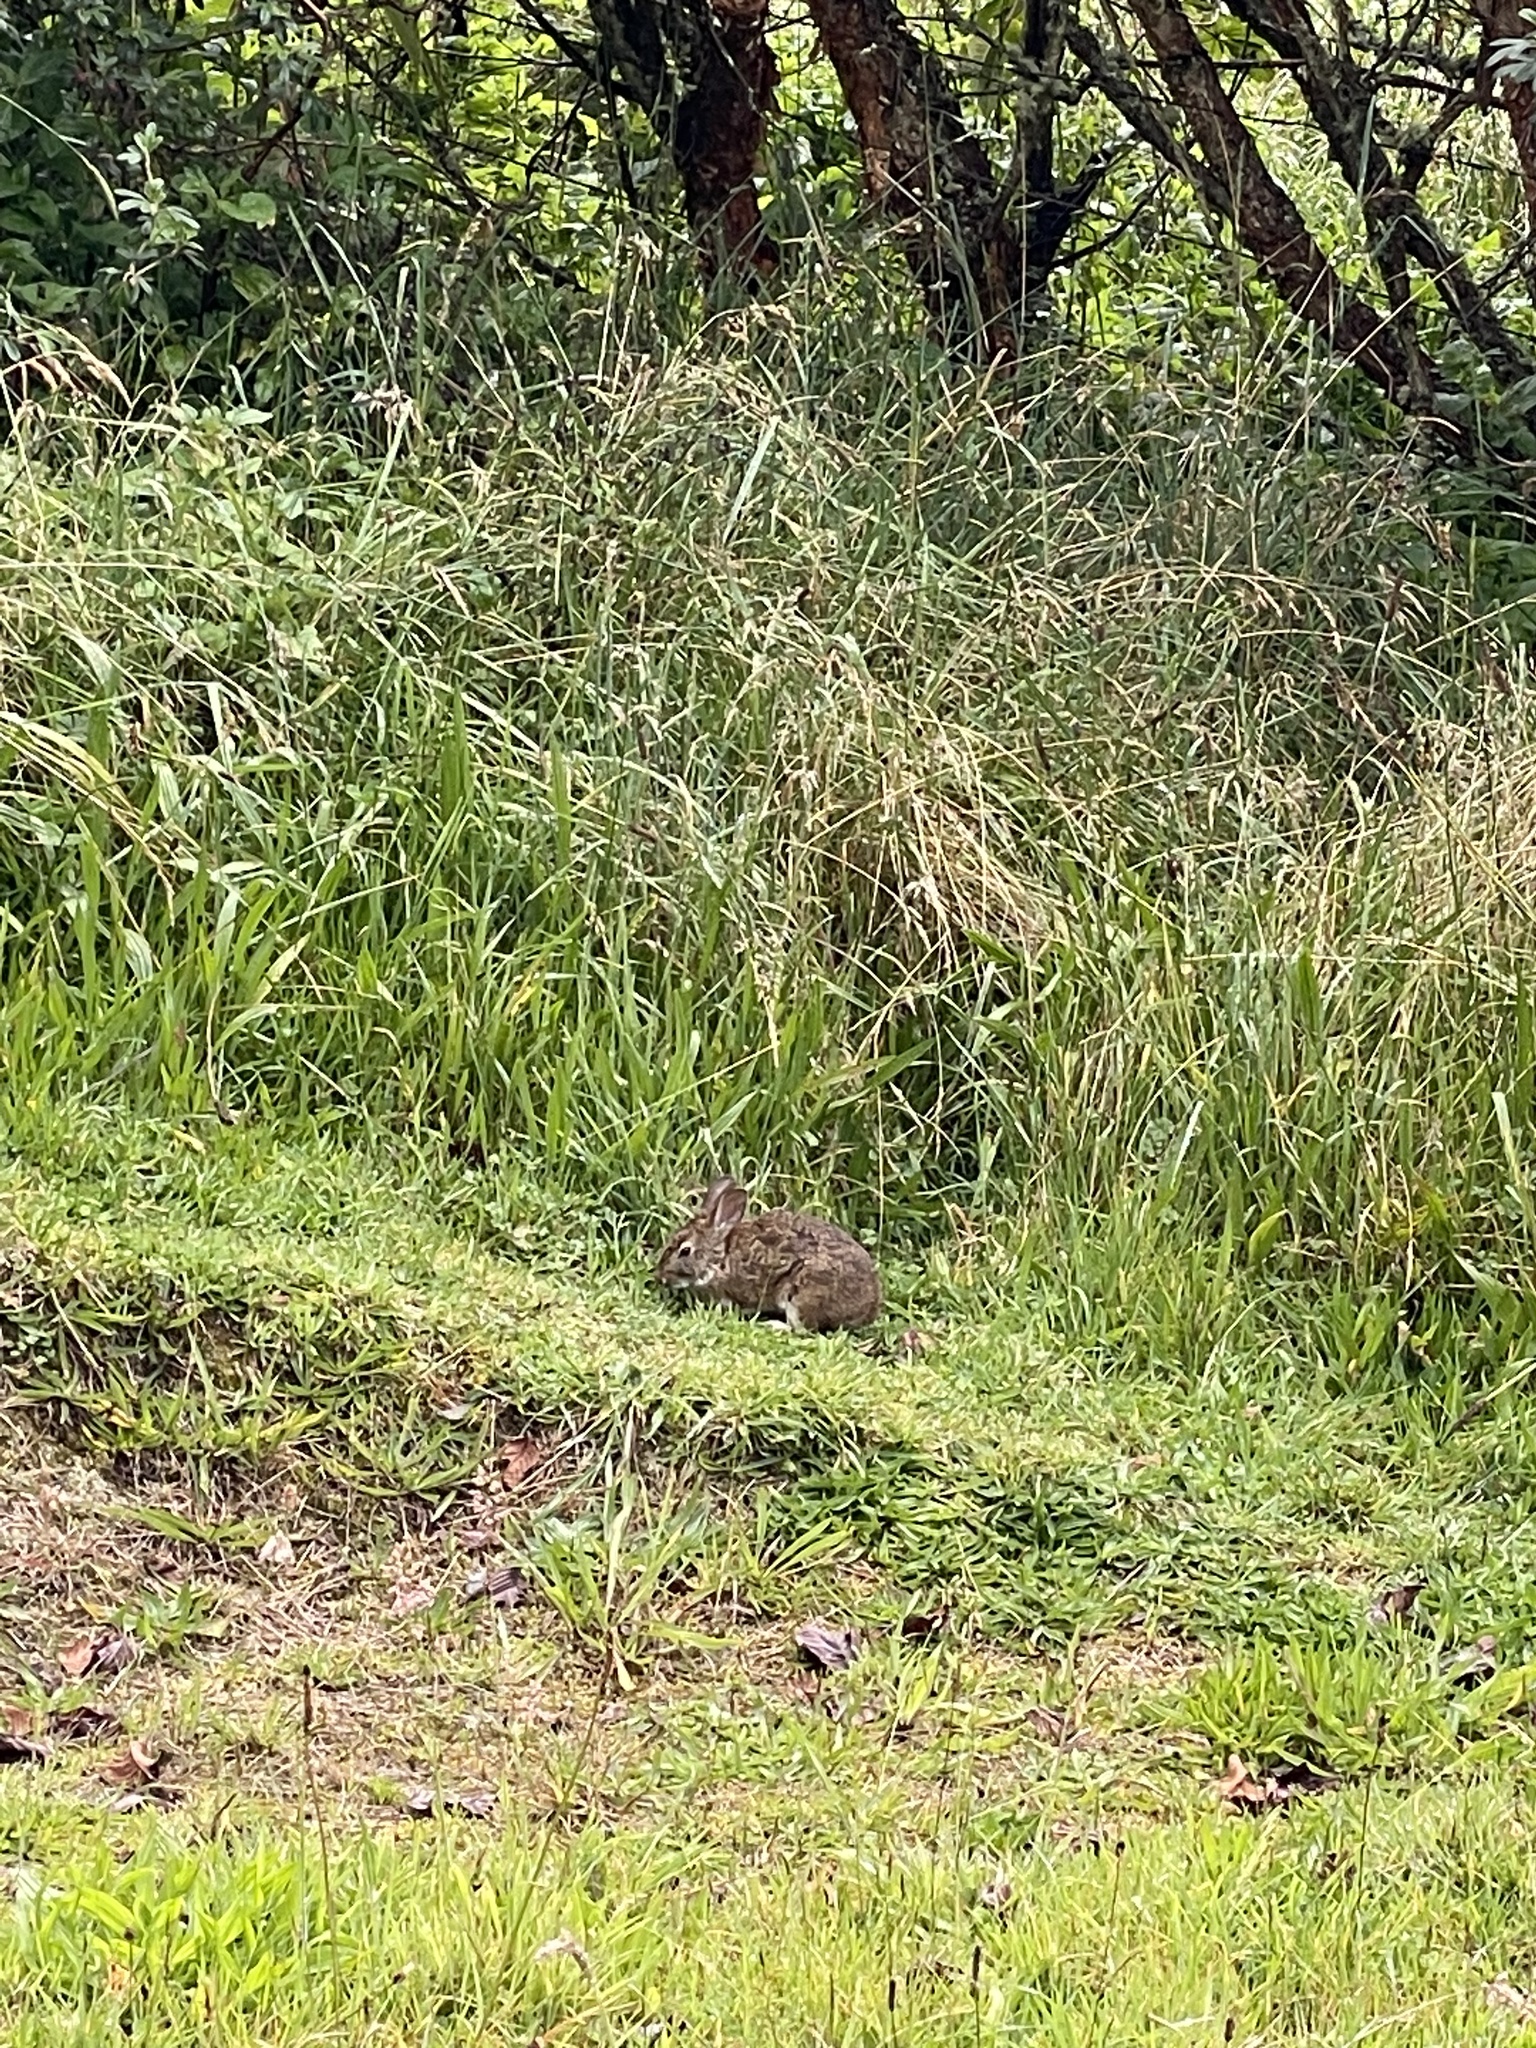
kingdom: Animalia
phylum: Chordata
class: Mammalia
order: Lagomorpha
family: Leporidae
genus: Sylvilagus
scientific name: Sylvilagus andinus
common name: Andean cottontail
